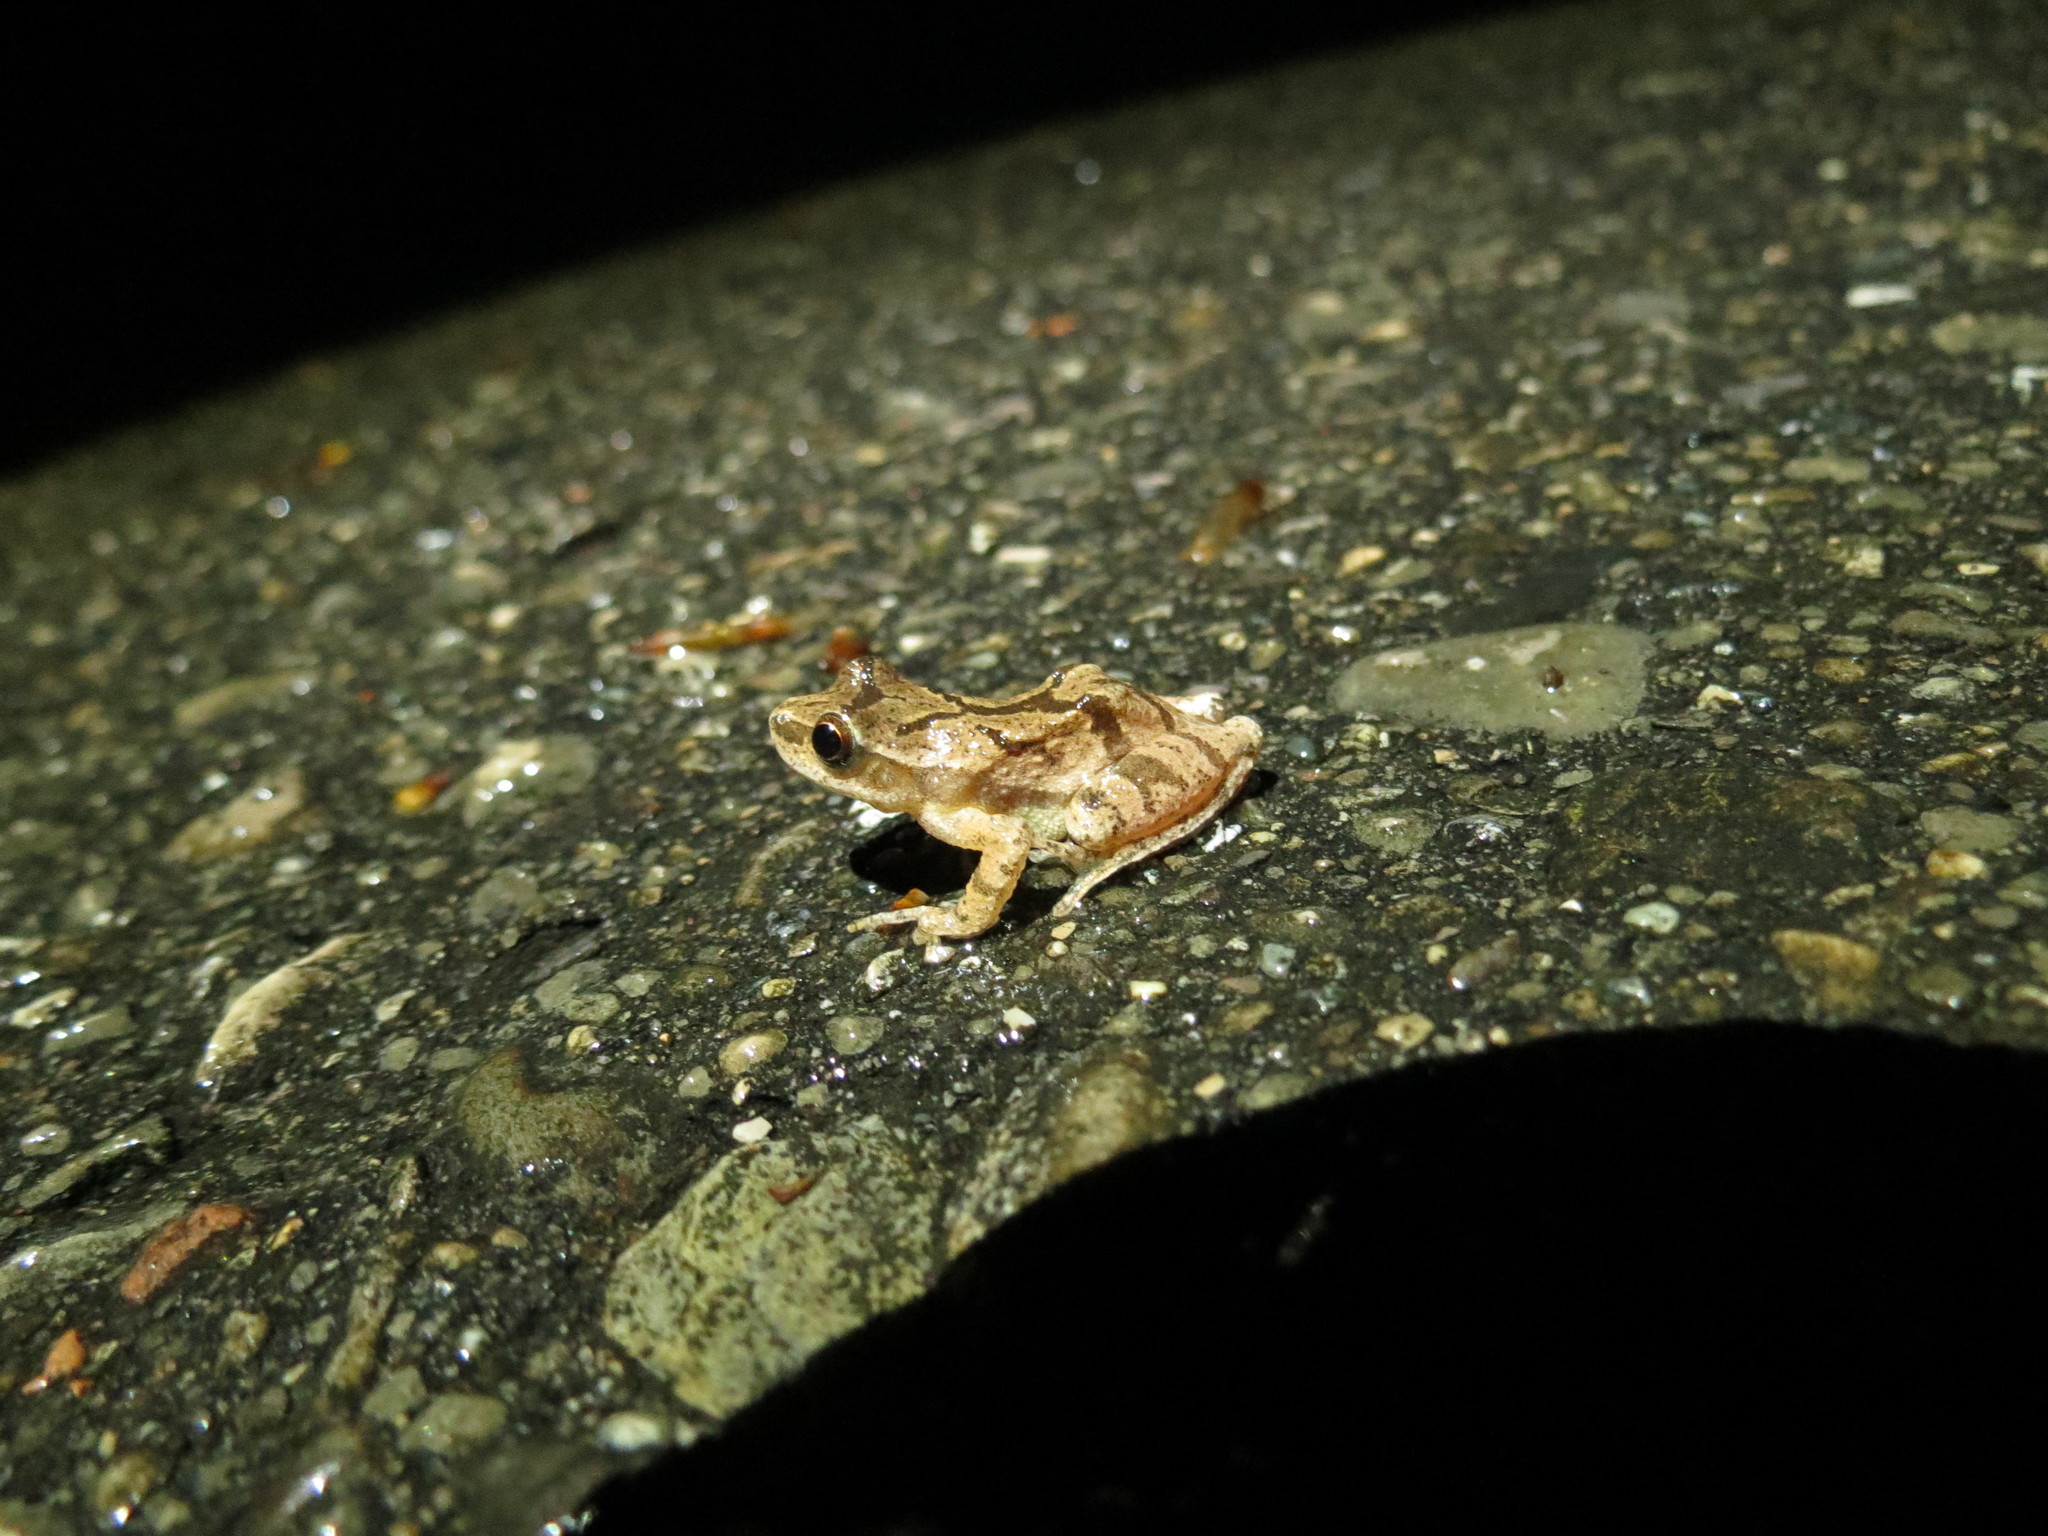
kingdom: Animalia
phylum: Chordata
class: Amphibia
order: Anura
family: Hylidae
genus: Pseudacris
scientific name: Pseudacris crucifer
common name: Spring peeper
